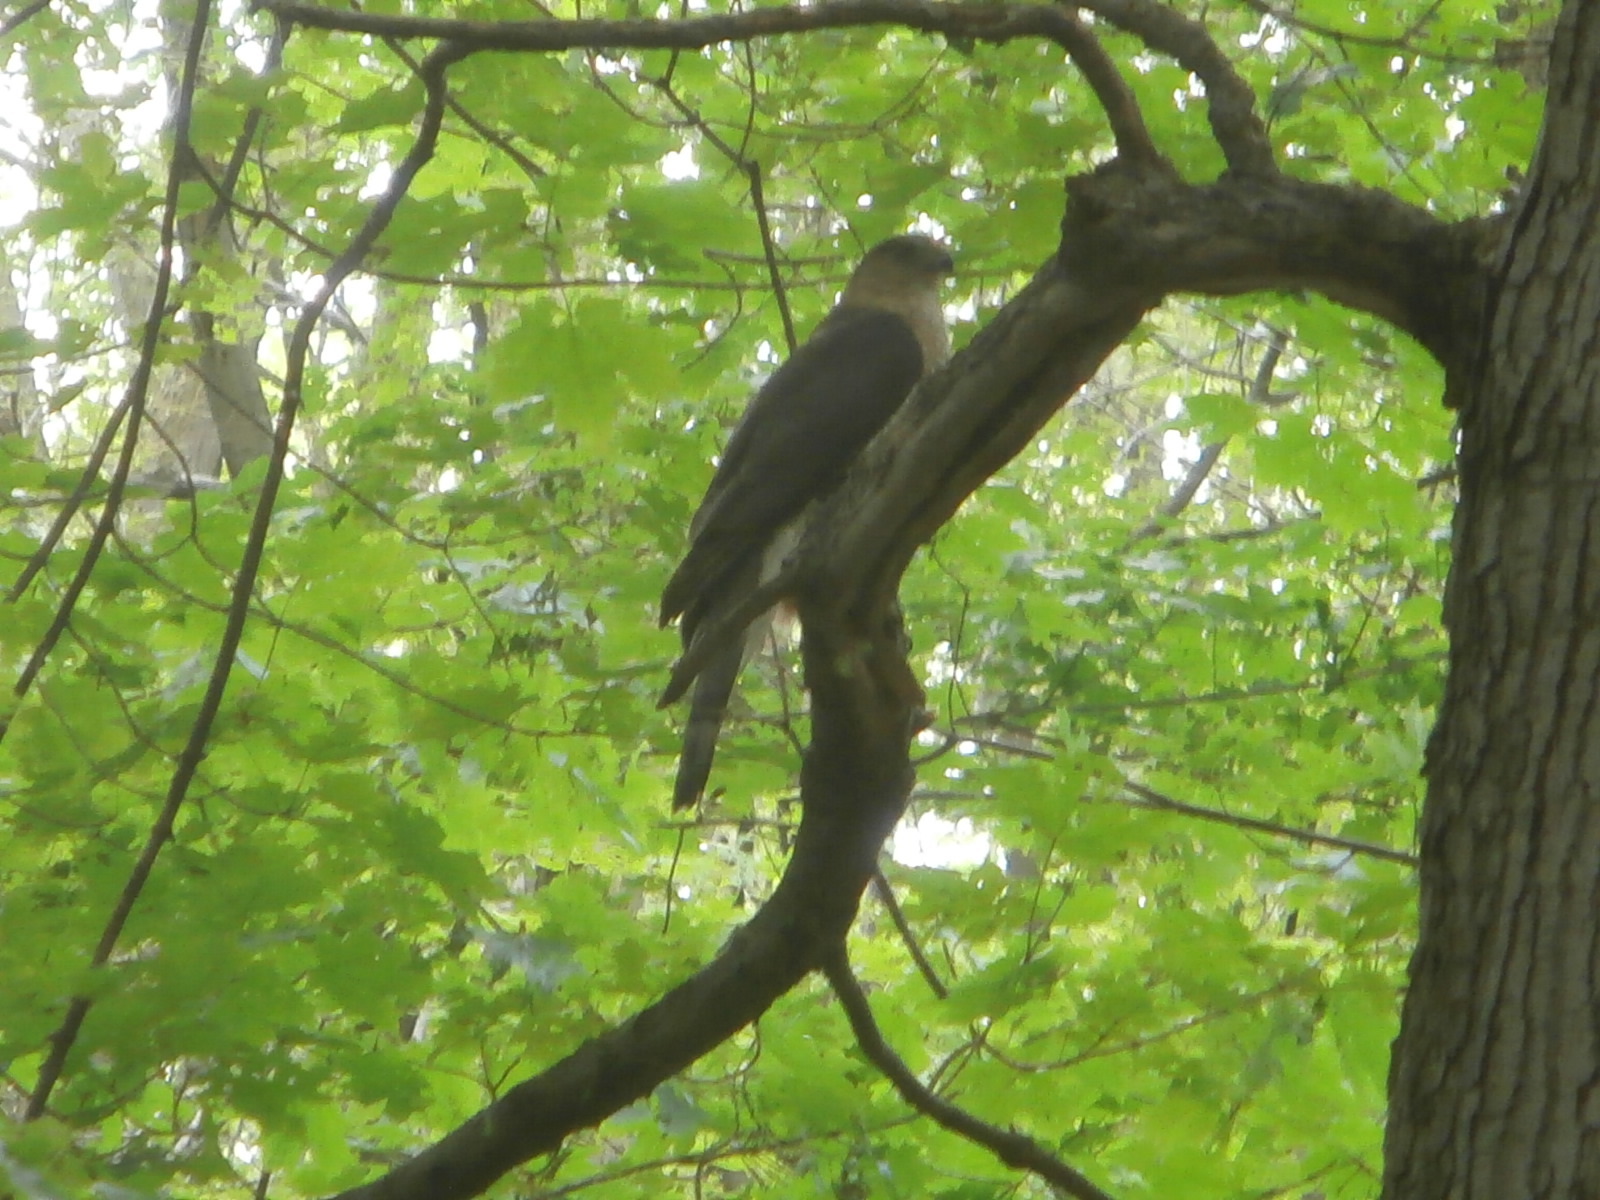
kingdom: Animalia
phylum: Chordata
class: Aves
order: Accipitriformes
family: Accipitridae
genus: Accipiter
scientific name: Accipiter cooperii
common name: Cooper's hawk
